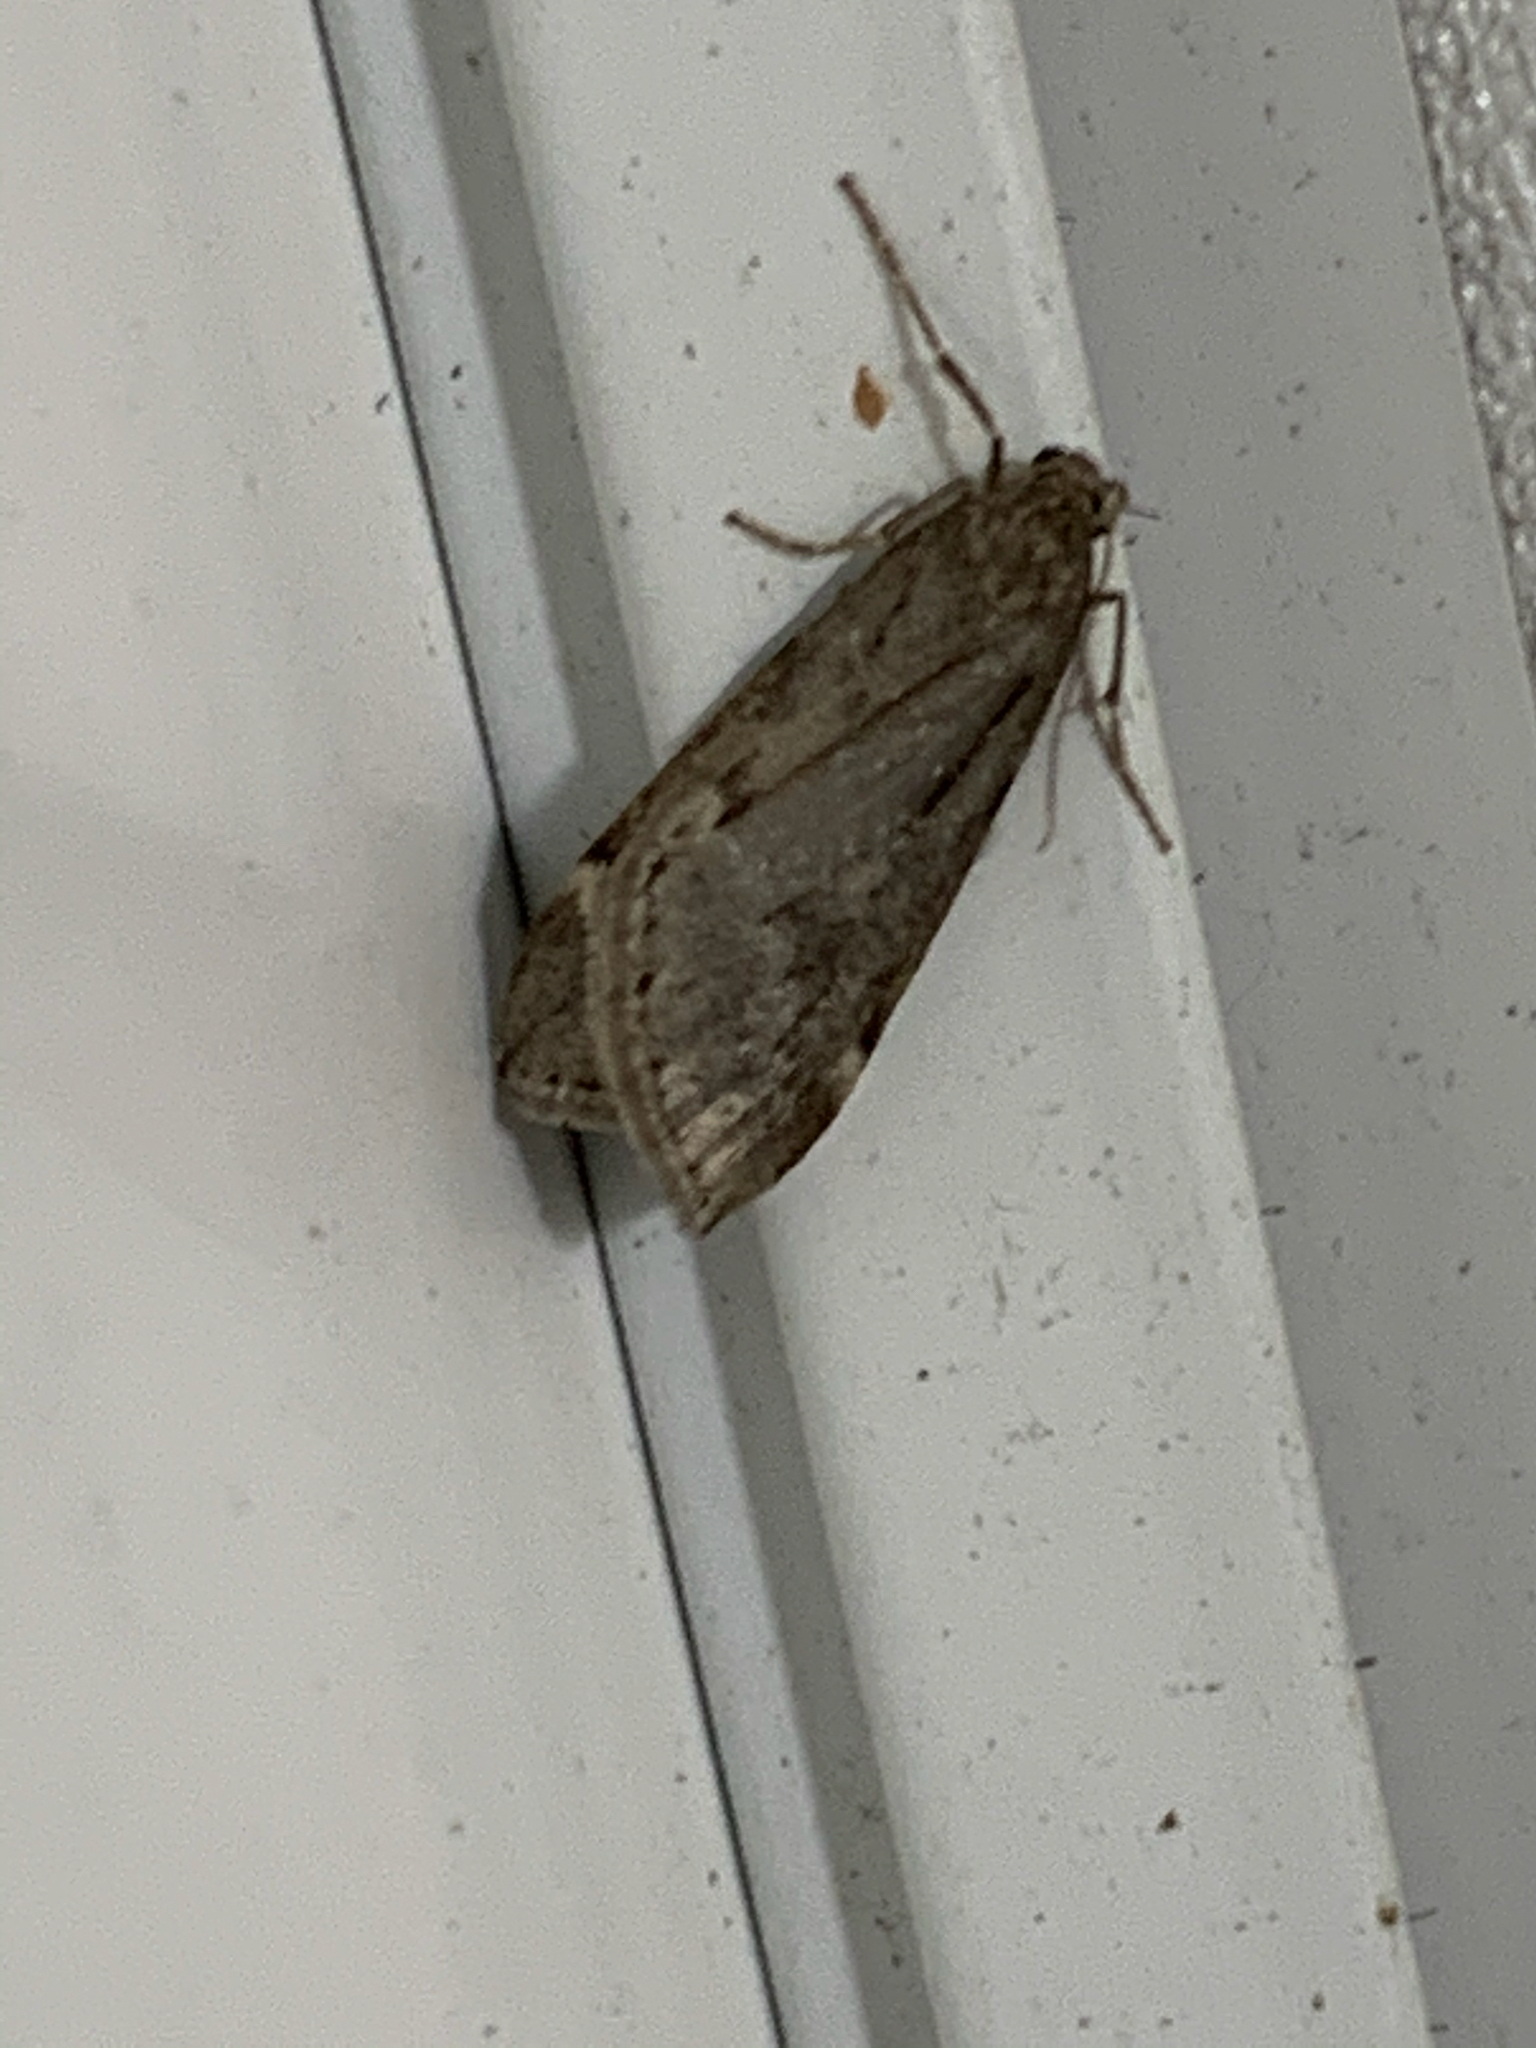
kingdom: Animalia
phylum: Arthropoda
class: Insecta
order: Lepidoptera
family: Geometridae
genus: Alsophila
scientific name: Alsophila pometaria
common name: Fall cankerworm
